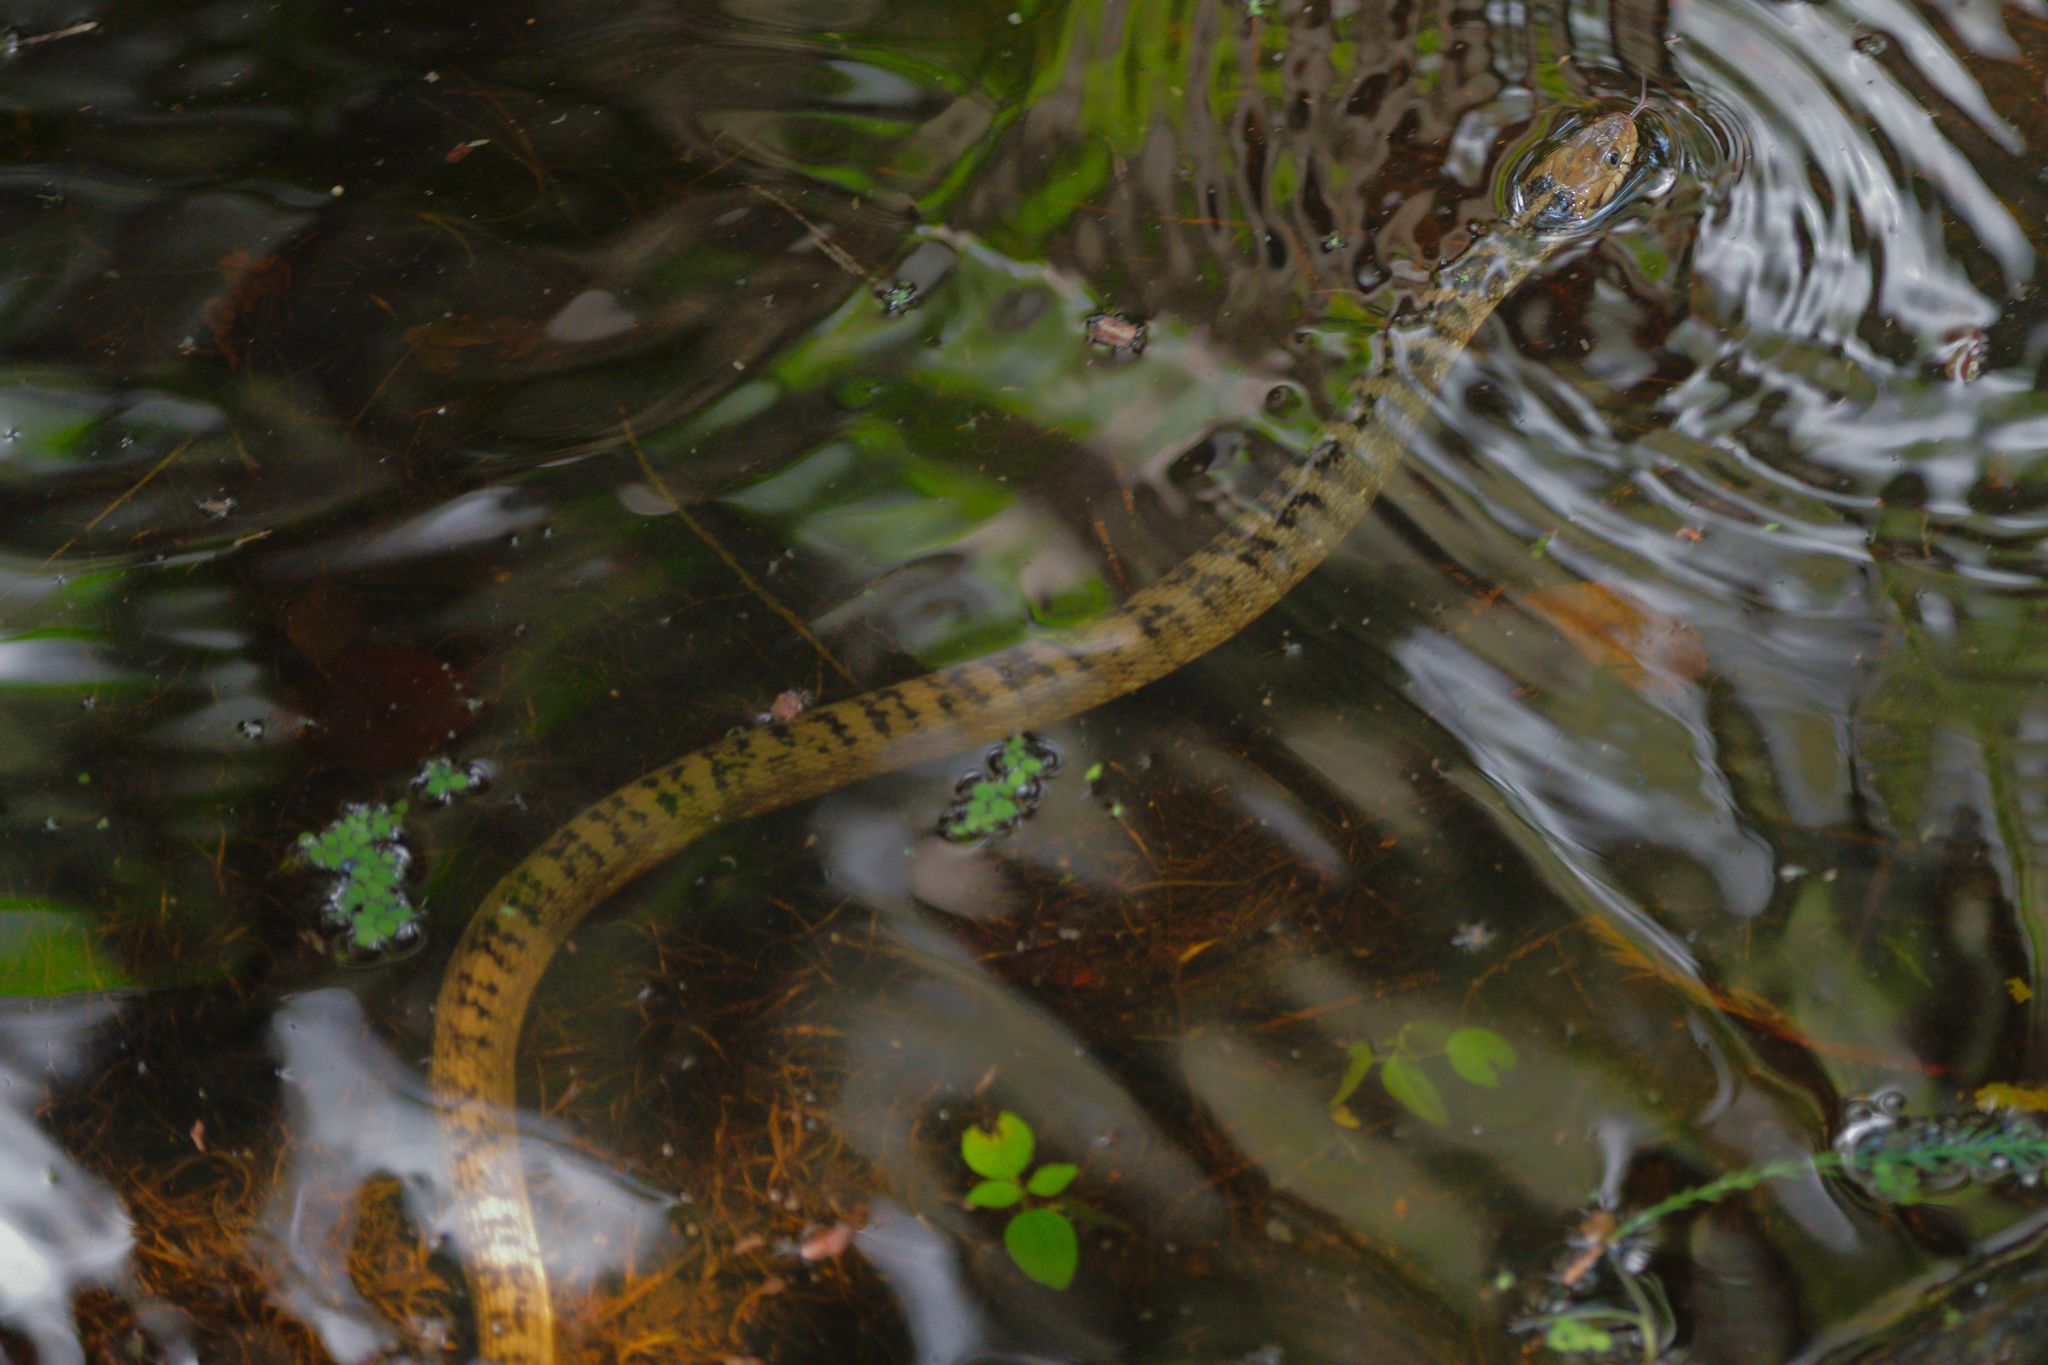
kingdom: Animalia
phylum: Chordata
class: Squamata
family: Colubridae
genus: Nerodia
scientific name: Nerodia fasciata
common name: Southern water snake
